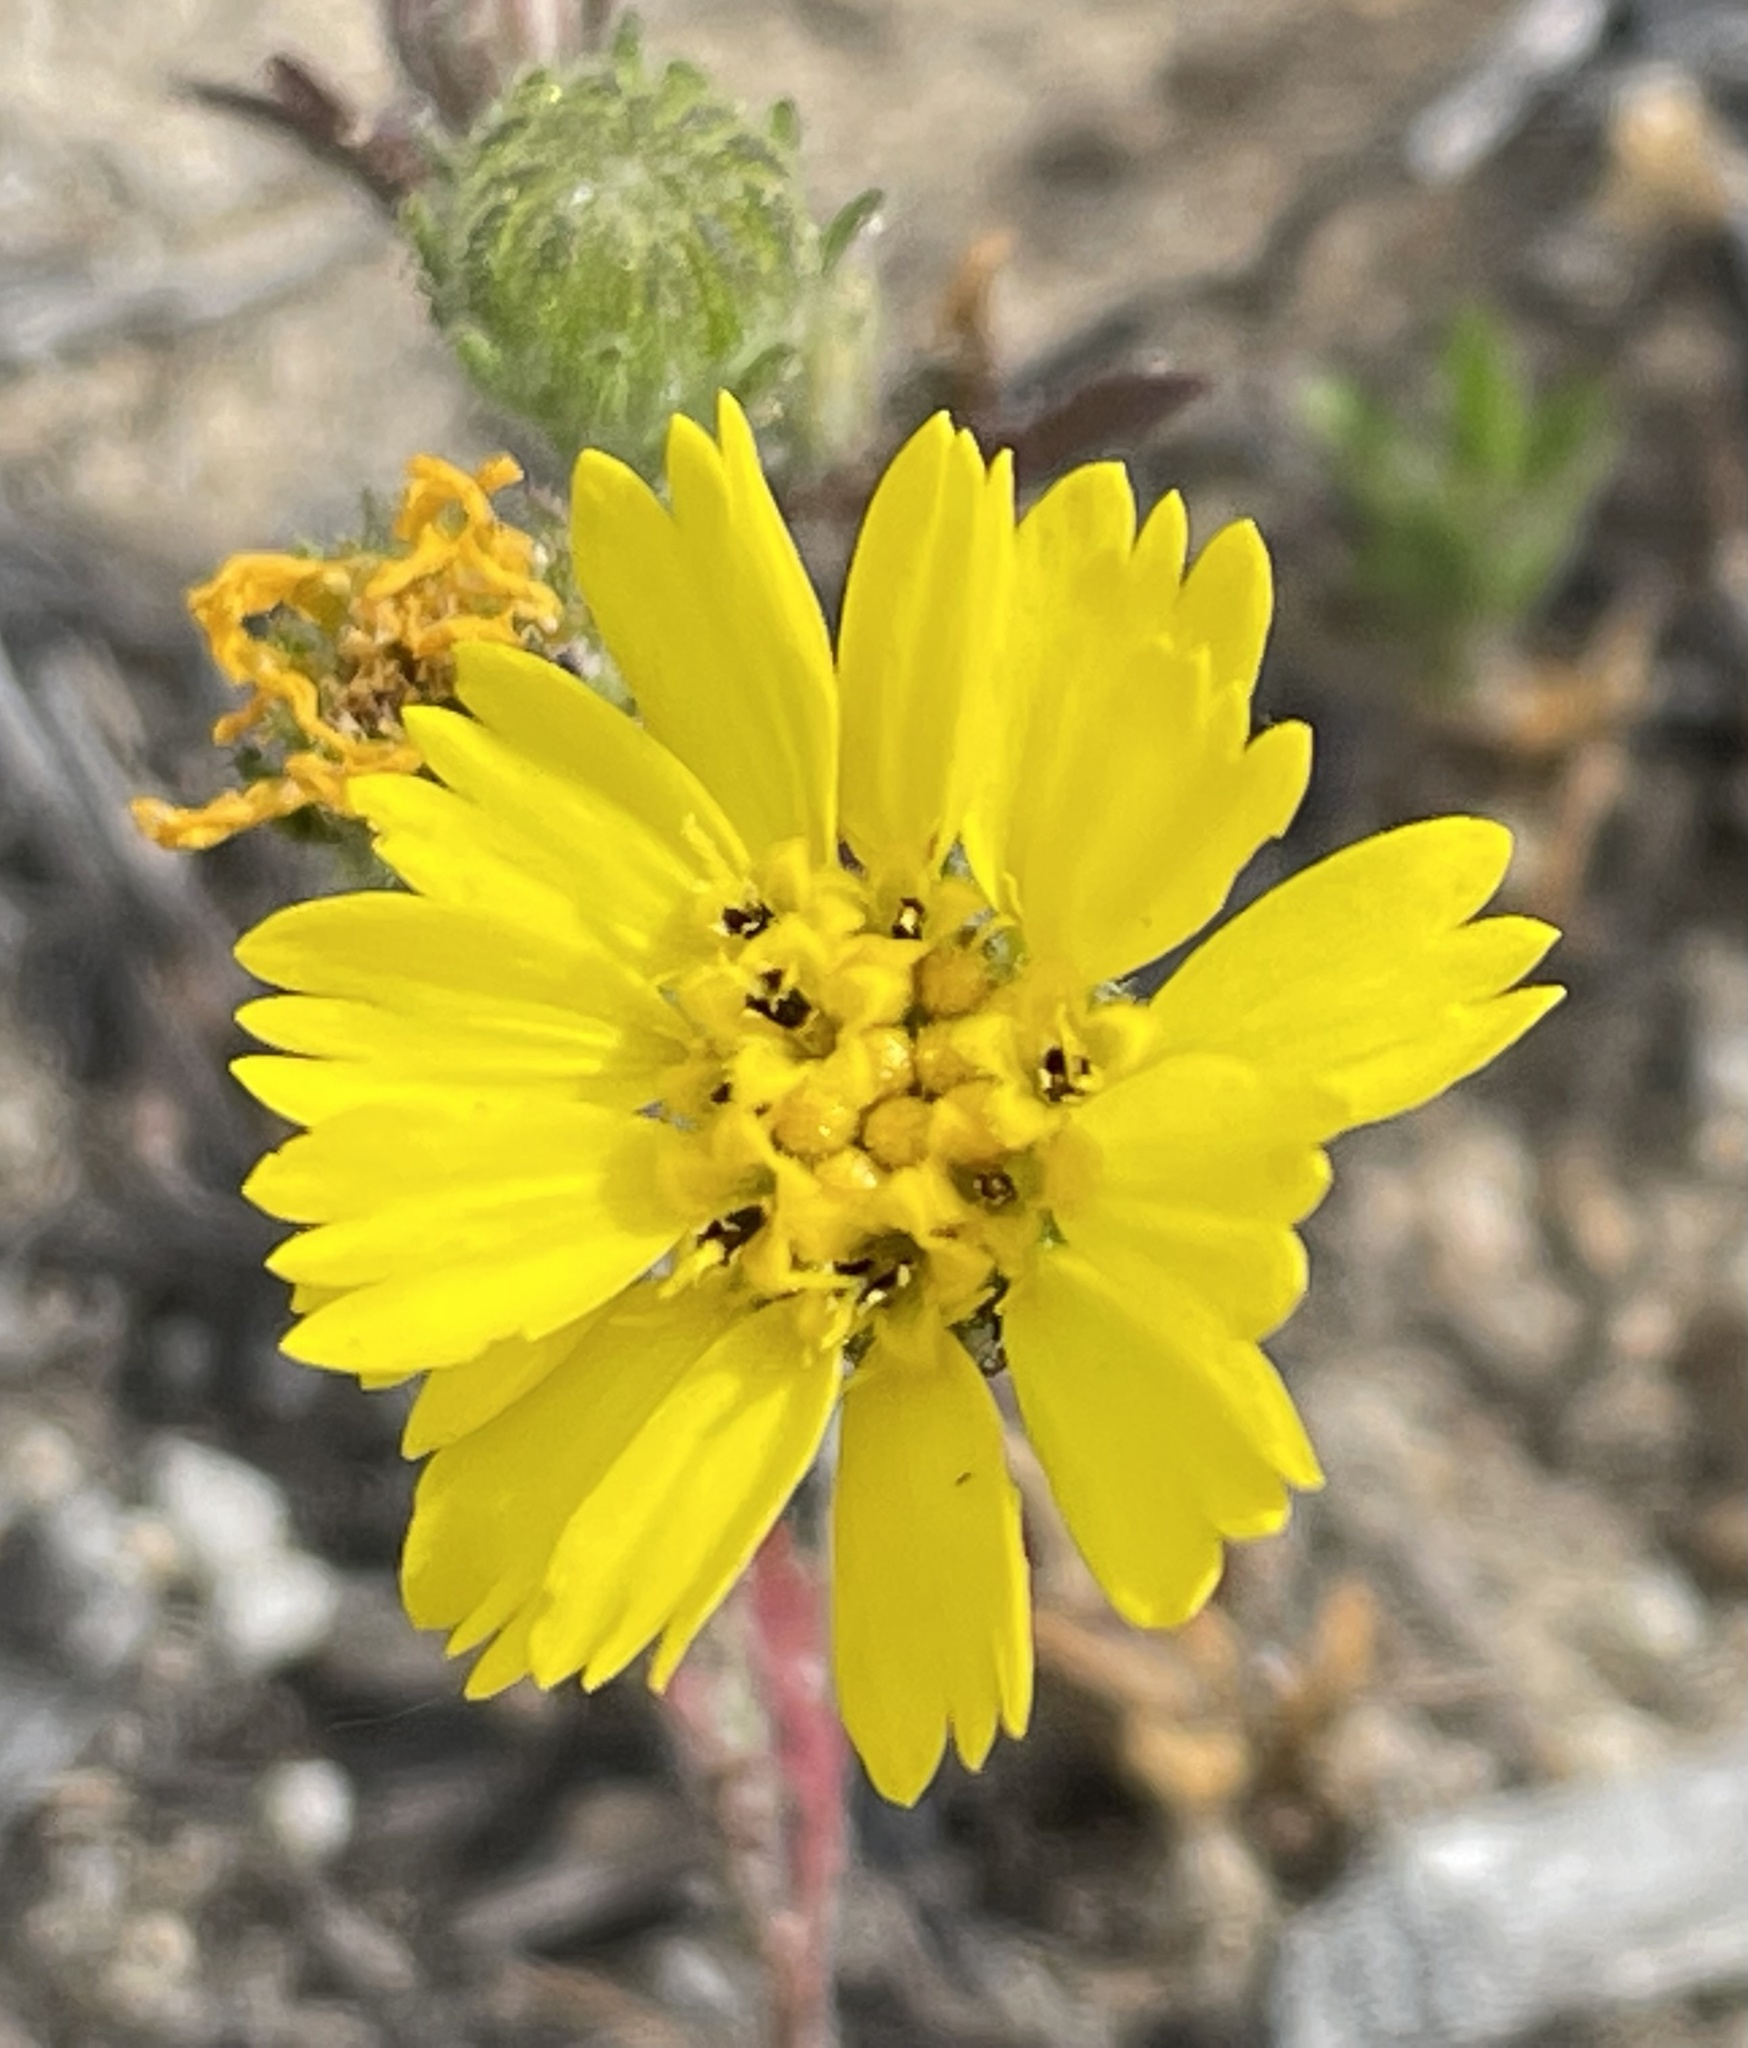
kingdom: Plantae
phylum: Tracheophyta
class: Magnoliopsida
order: Asterales
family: Asteraceae
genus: Deinandra
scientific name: Deinandra corymbosa
